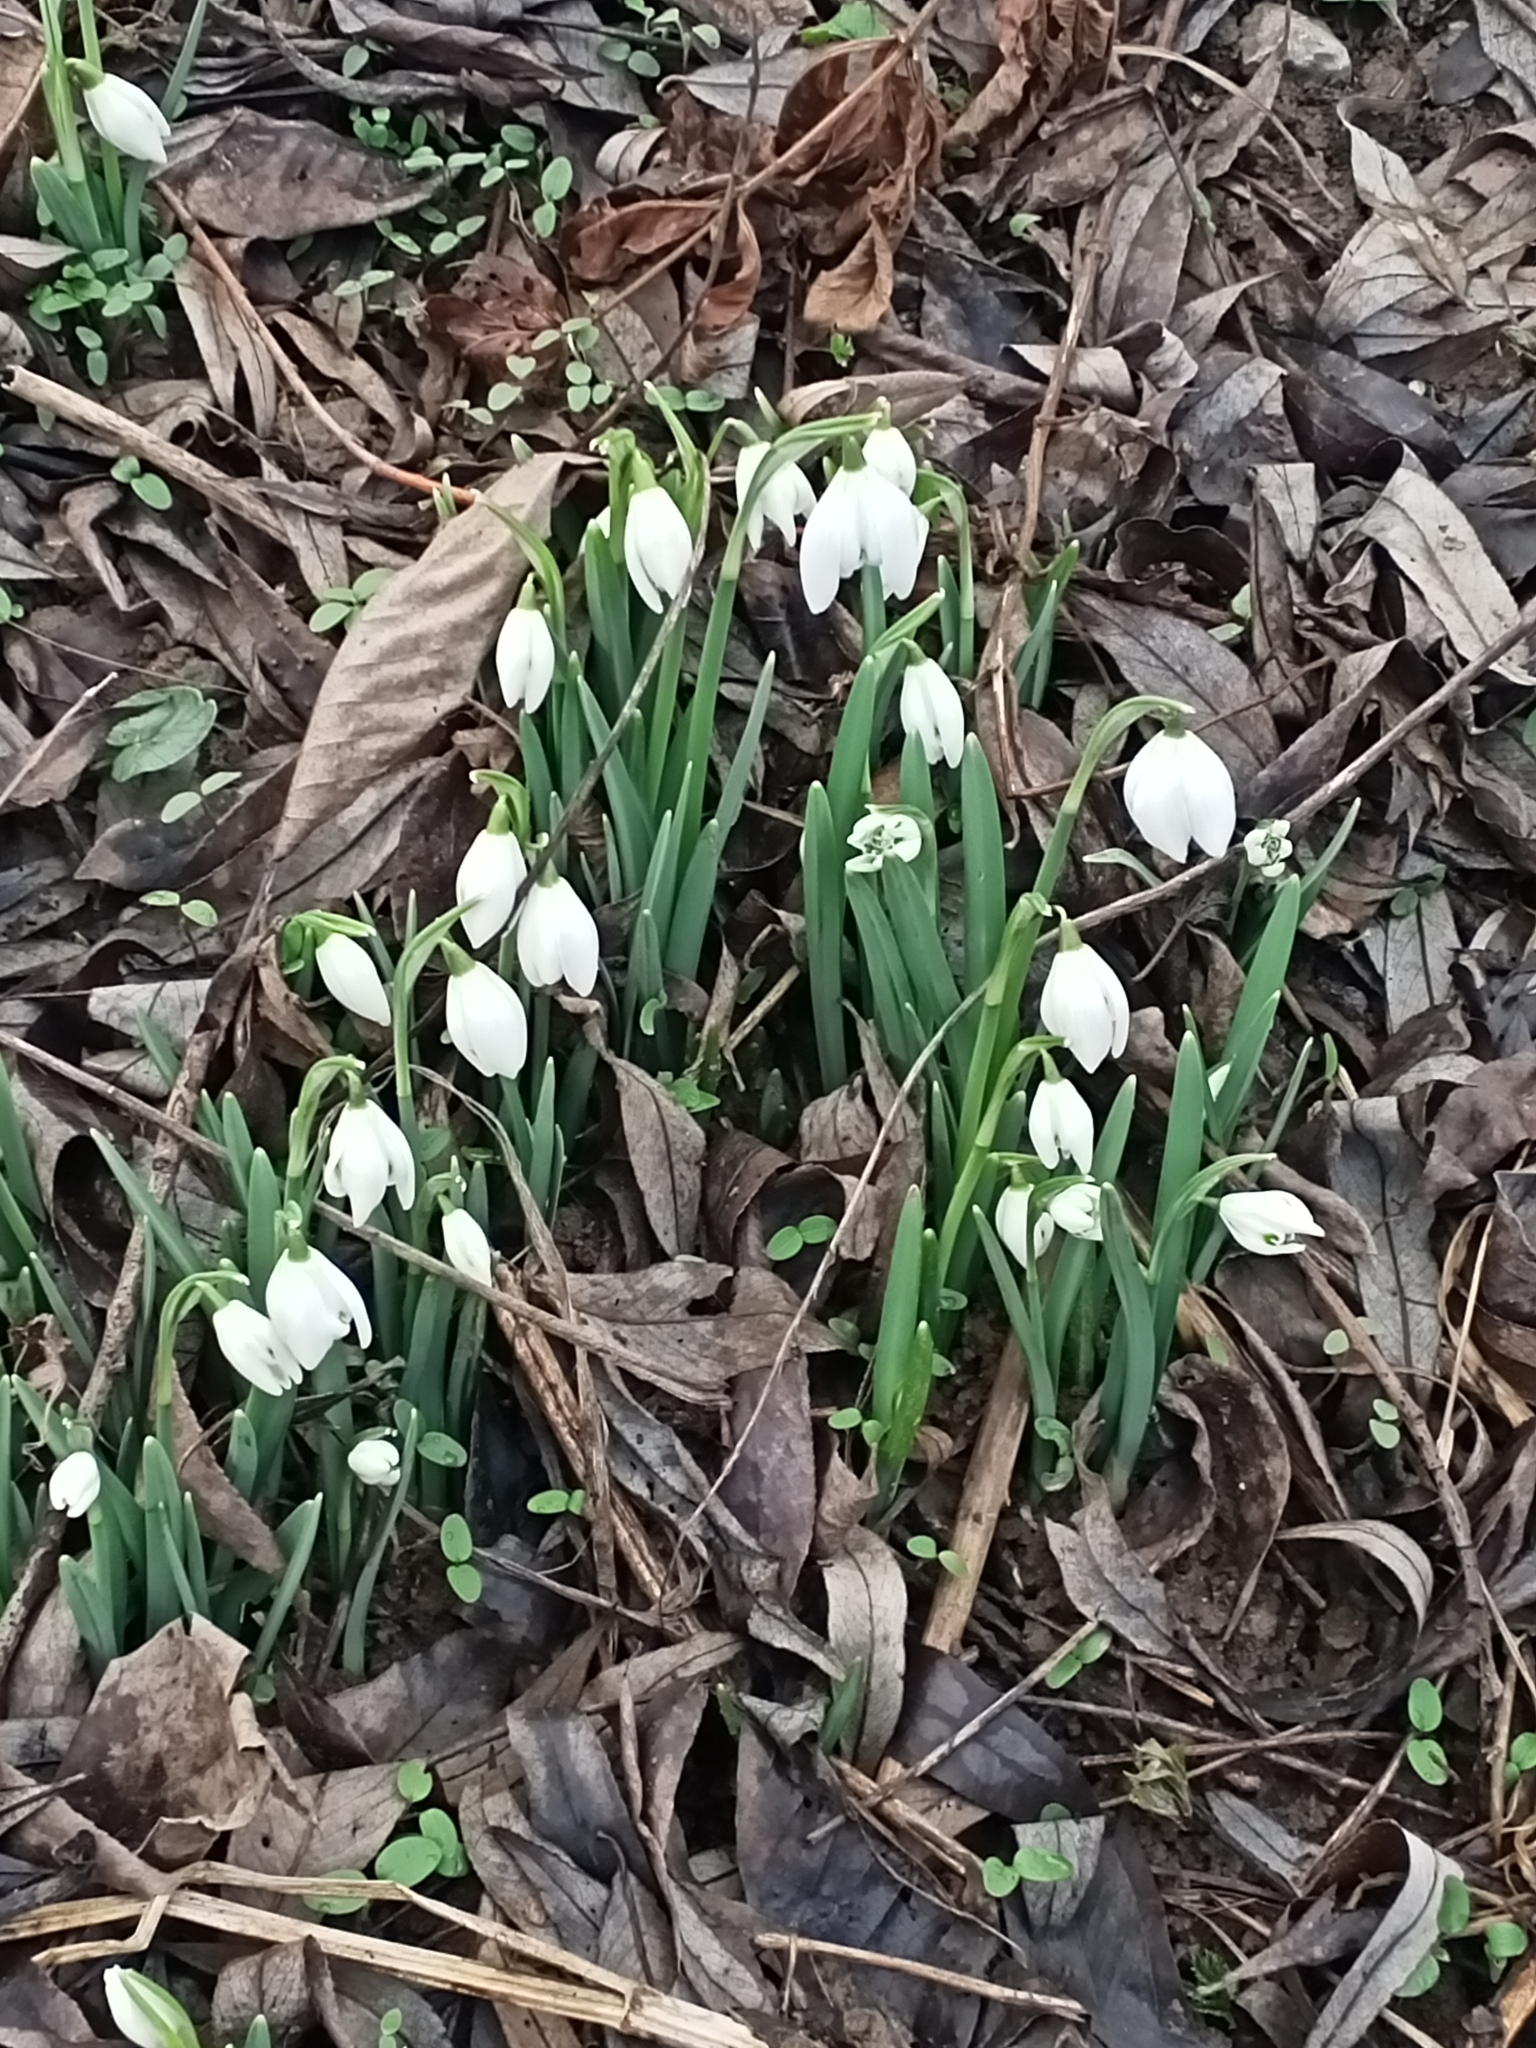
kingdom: Plantae
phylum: Tracheophyta
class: Liliopsida
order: Asparagales
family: Amaryllidaceae
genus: Galanthus
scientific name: Galanthus nivalis
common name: Snowdrop
